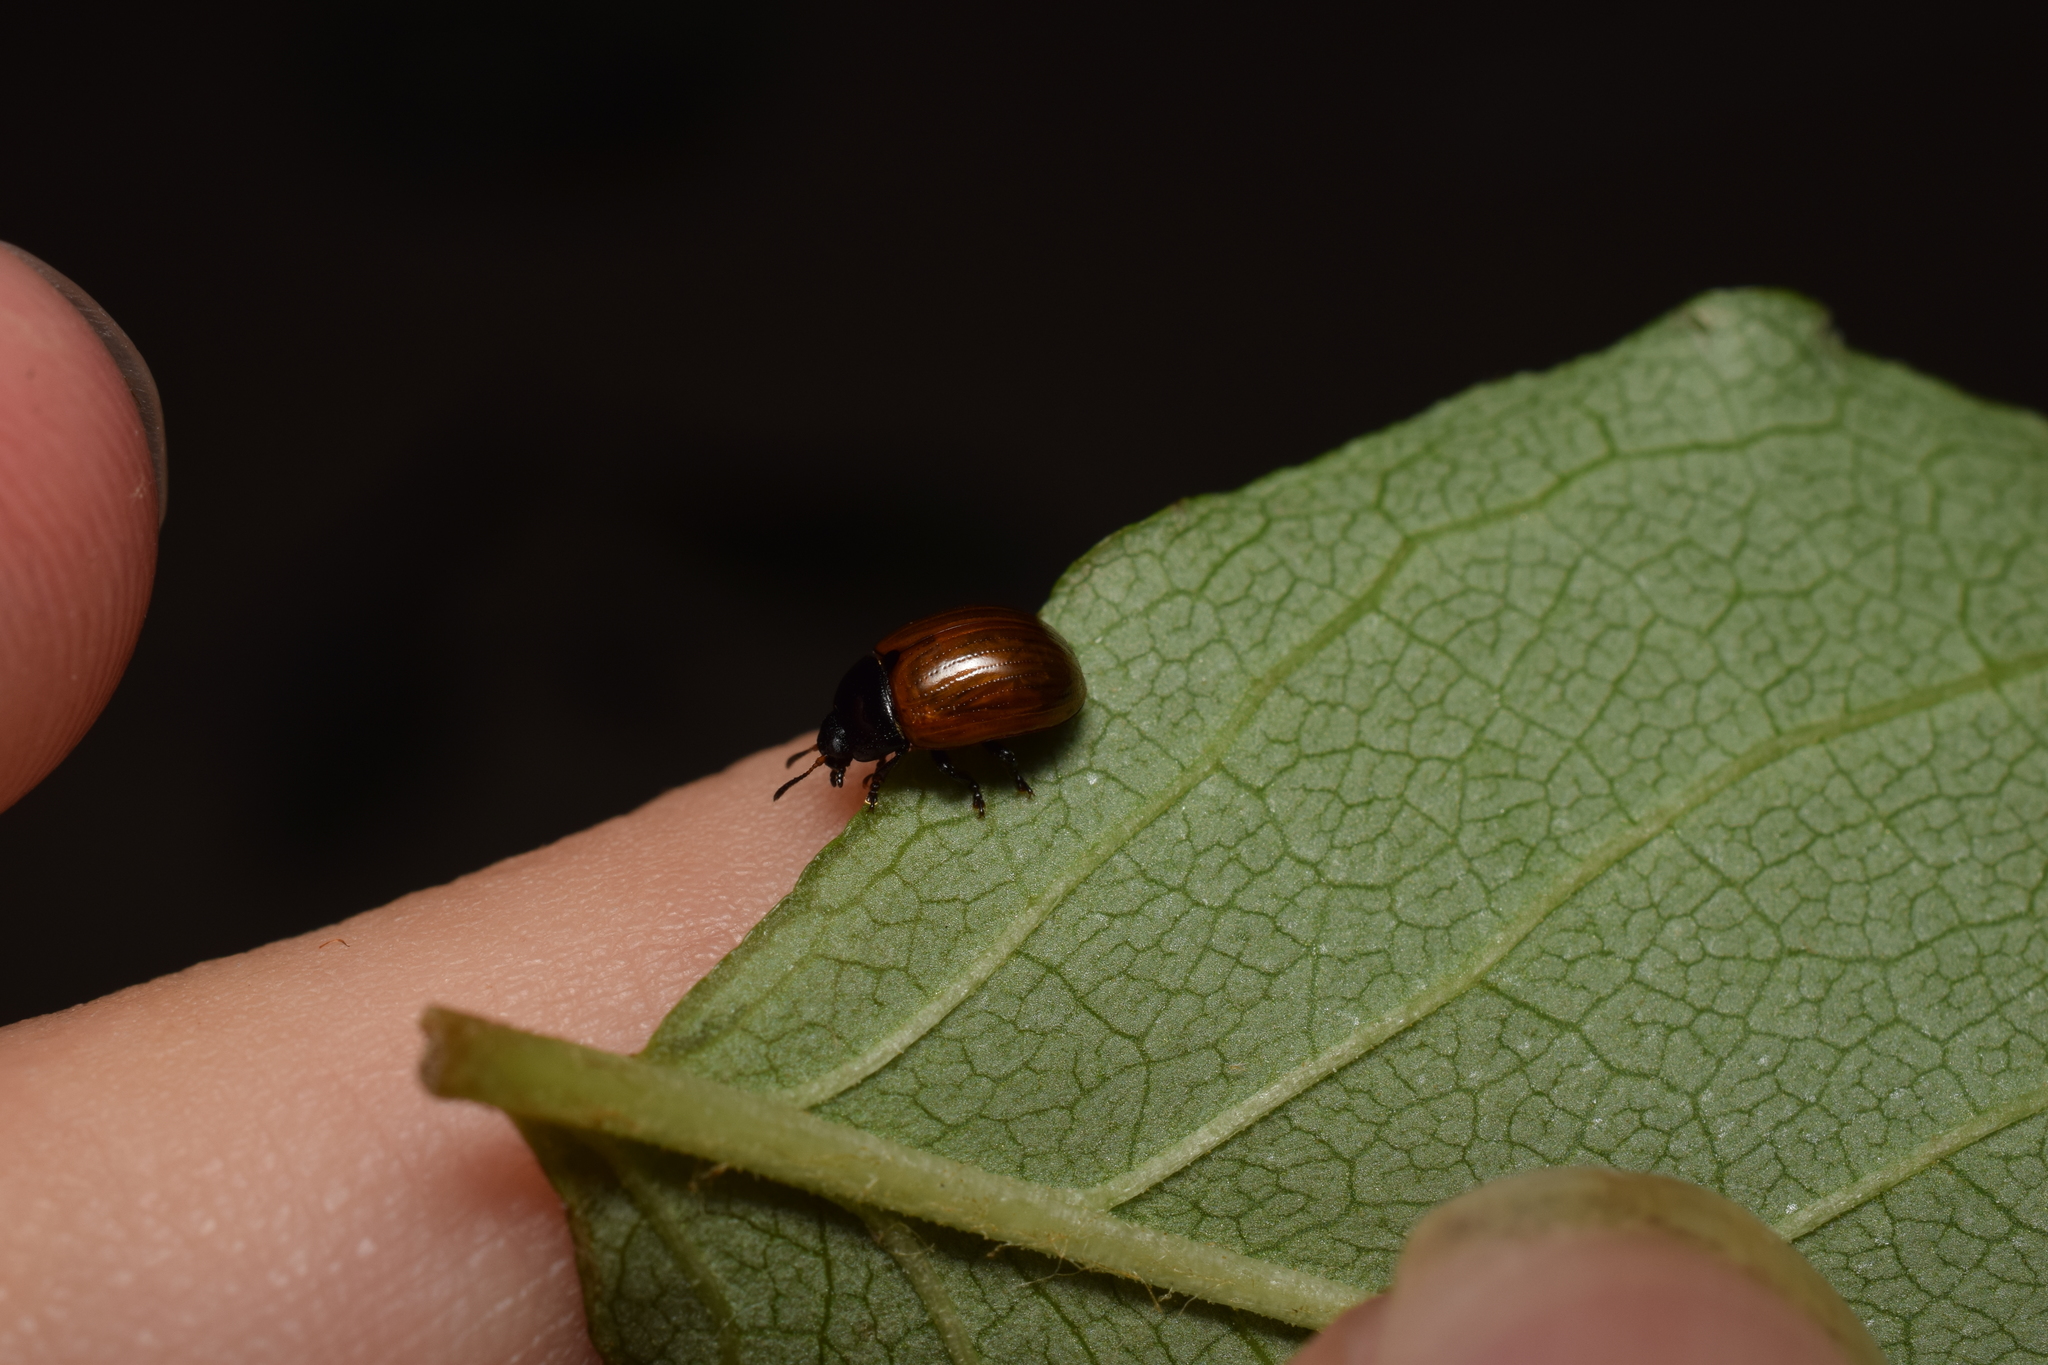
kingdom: Animalia
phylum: Arthropoda
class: Insecta
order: Coleoptera
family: Chrysomelidae
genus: Gonioctena
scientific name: Gonioctena
